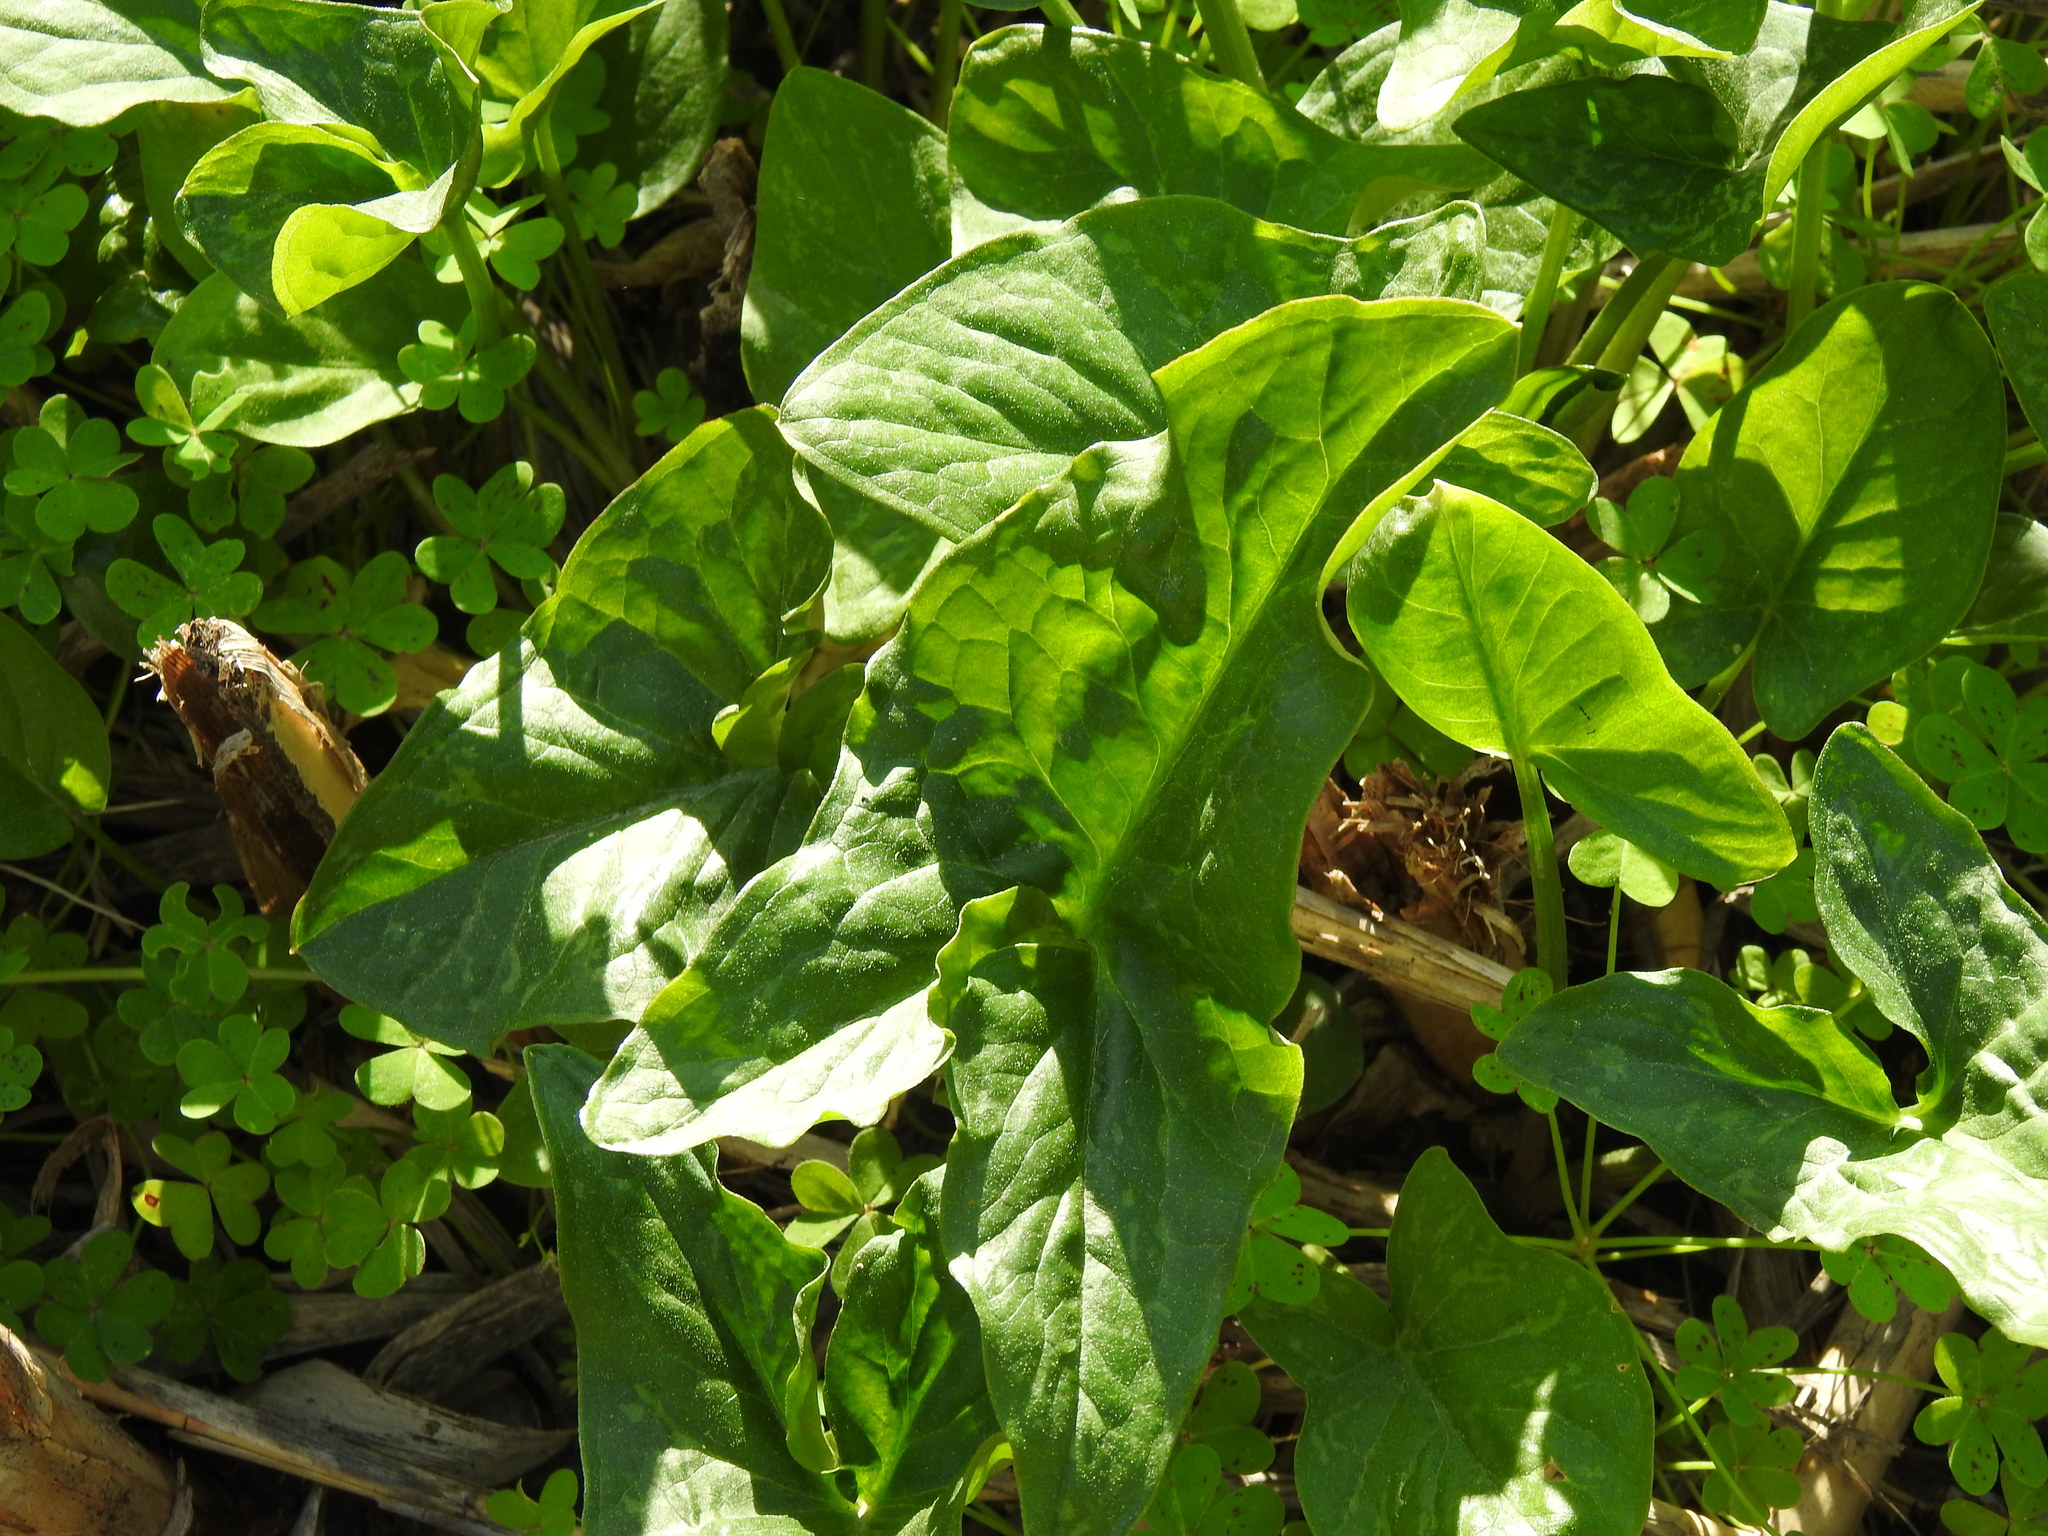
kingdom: Plantae
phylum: Tracheophyta
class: Liliopsida
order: Alismatales
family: Araceae
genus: Arum
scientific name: Arum italicum
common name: Italian lords-and-ladies
